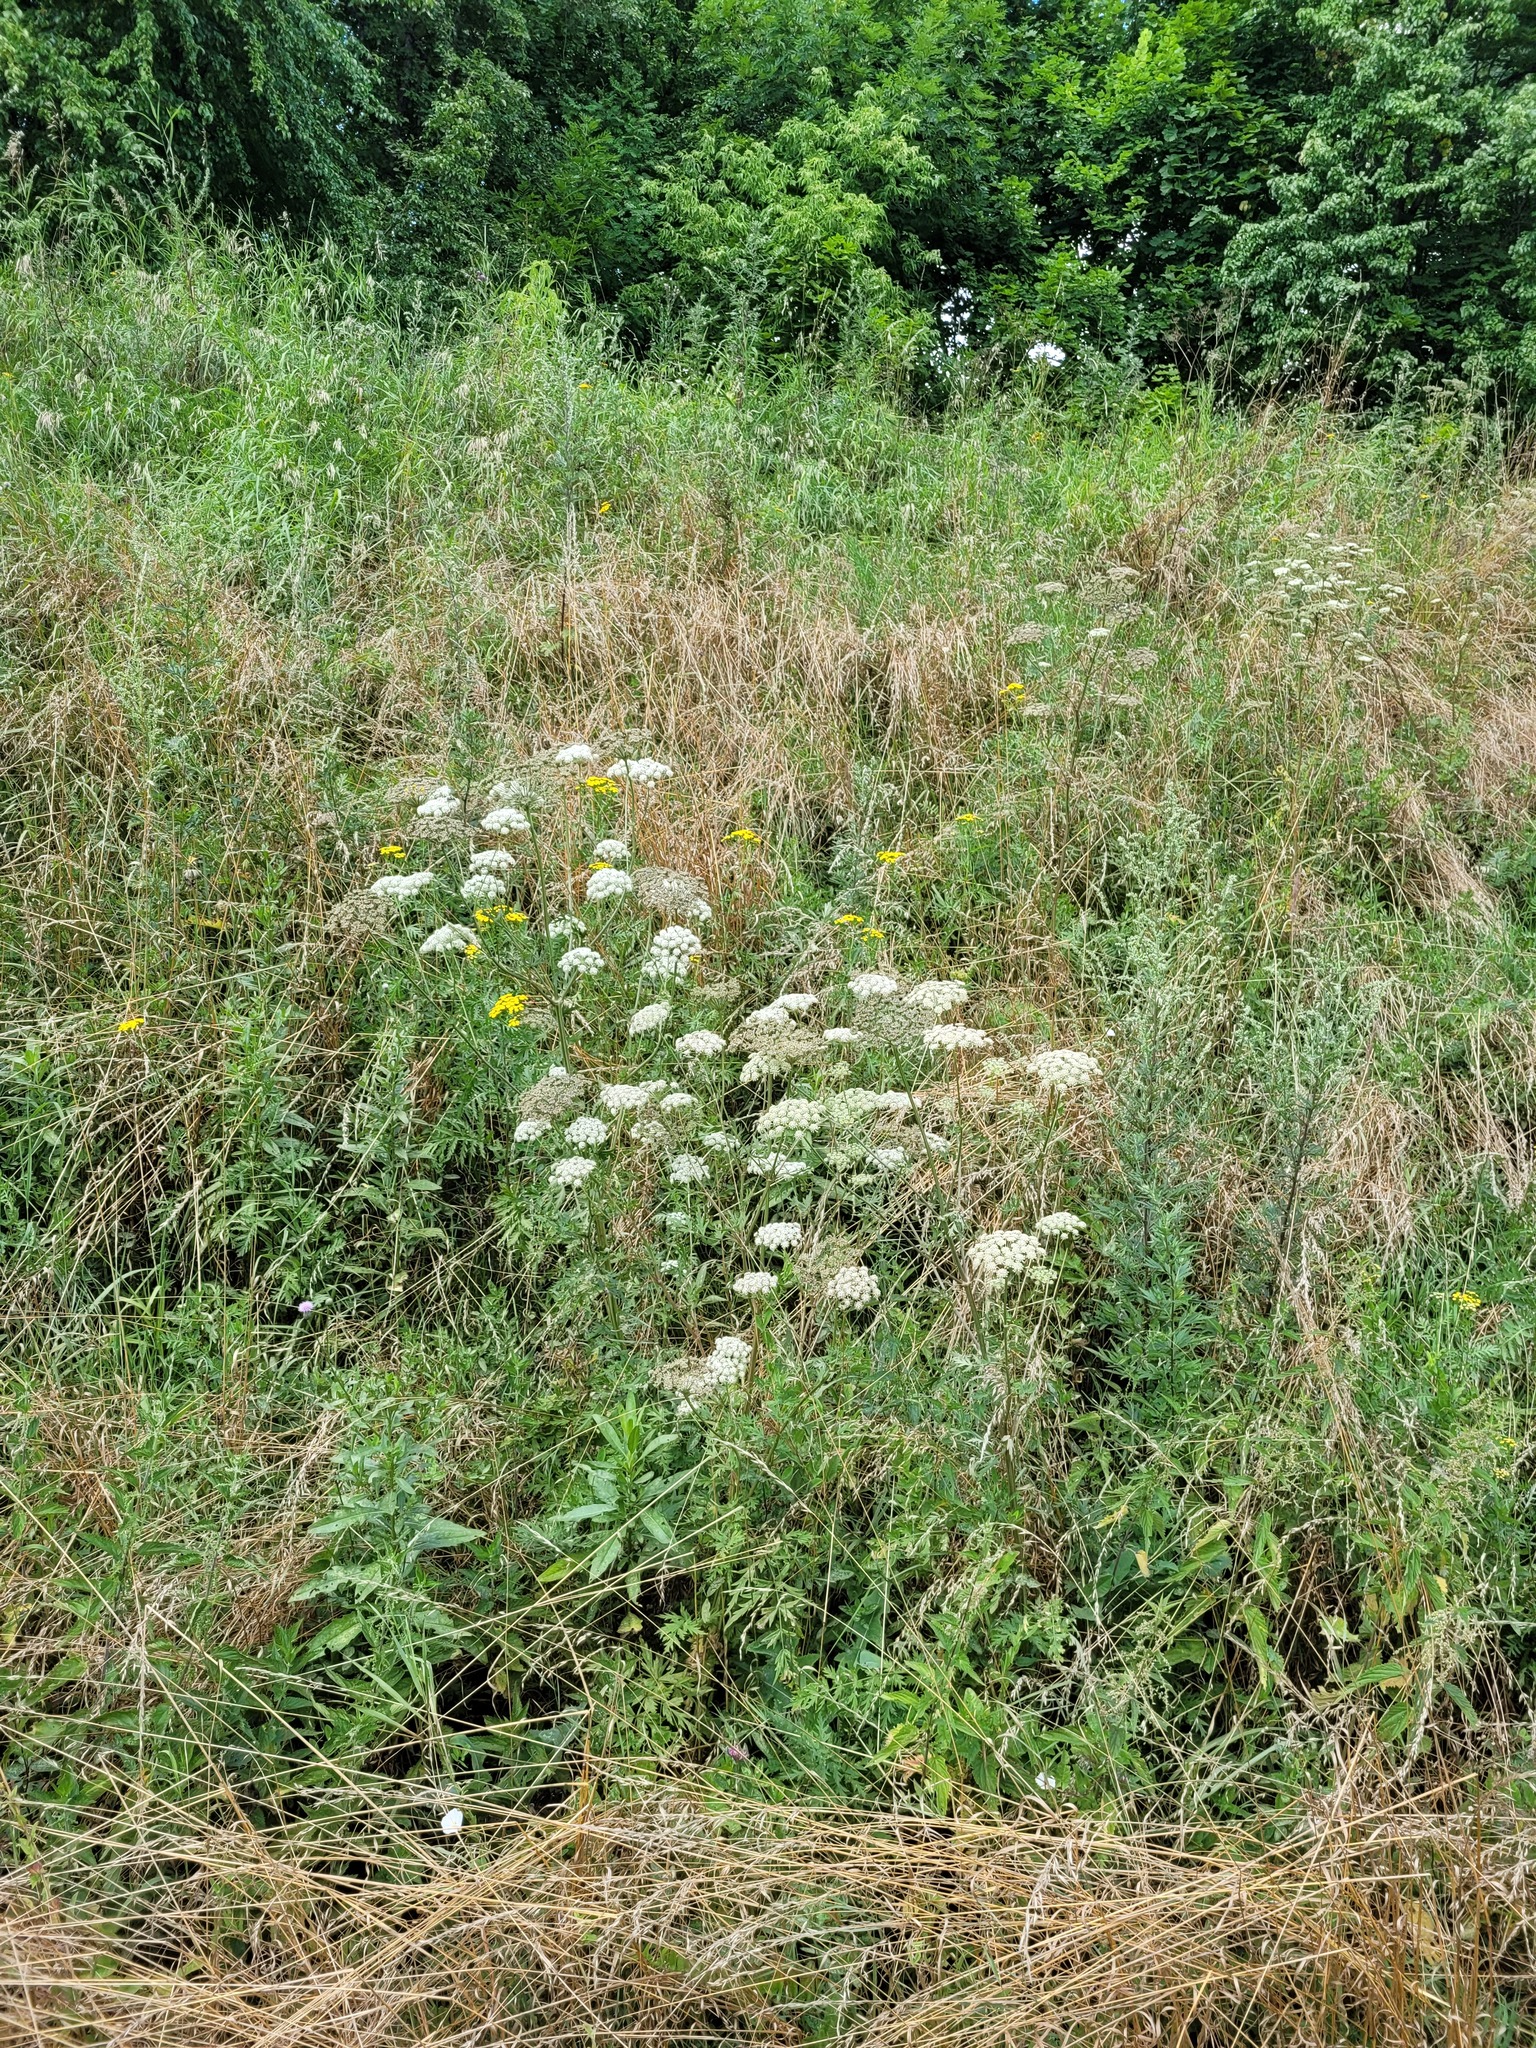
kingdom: Plantae
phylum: Tracheophyta
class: Magnoliopsida
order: Apiales
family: Apiaceae
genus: Seseli
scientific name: Seseli libanotis
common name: Mooncarrot
